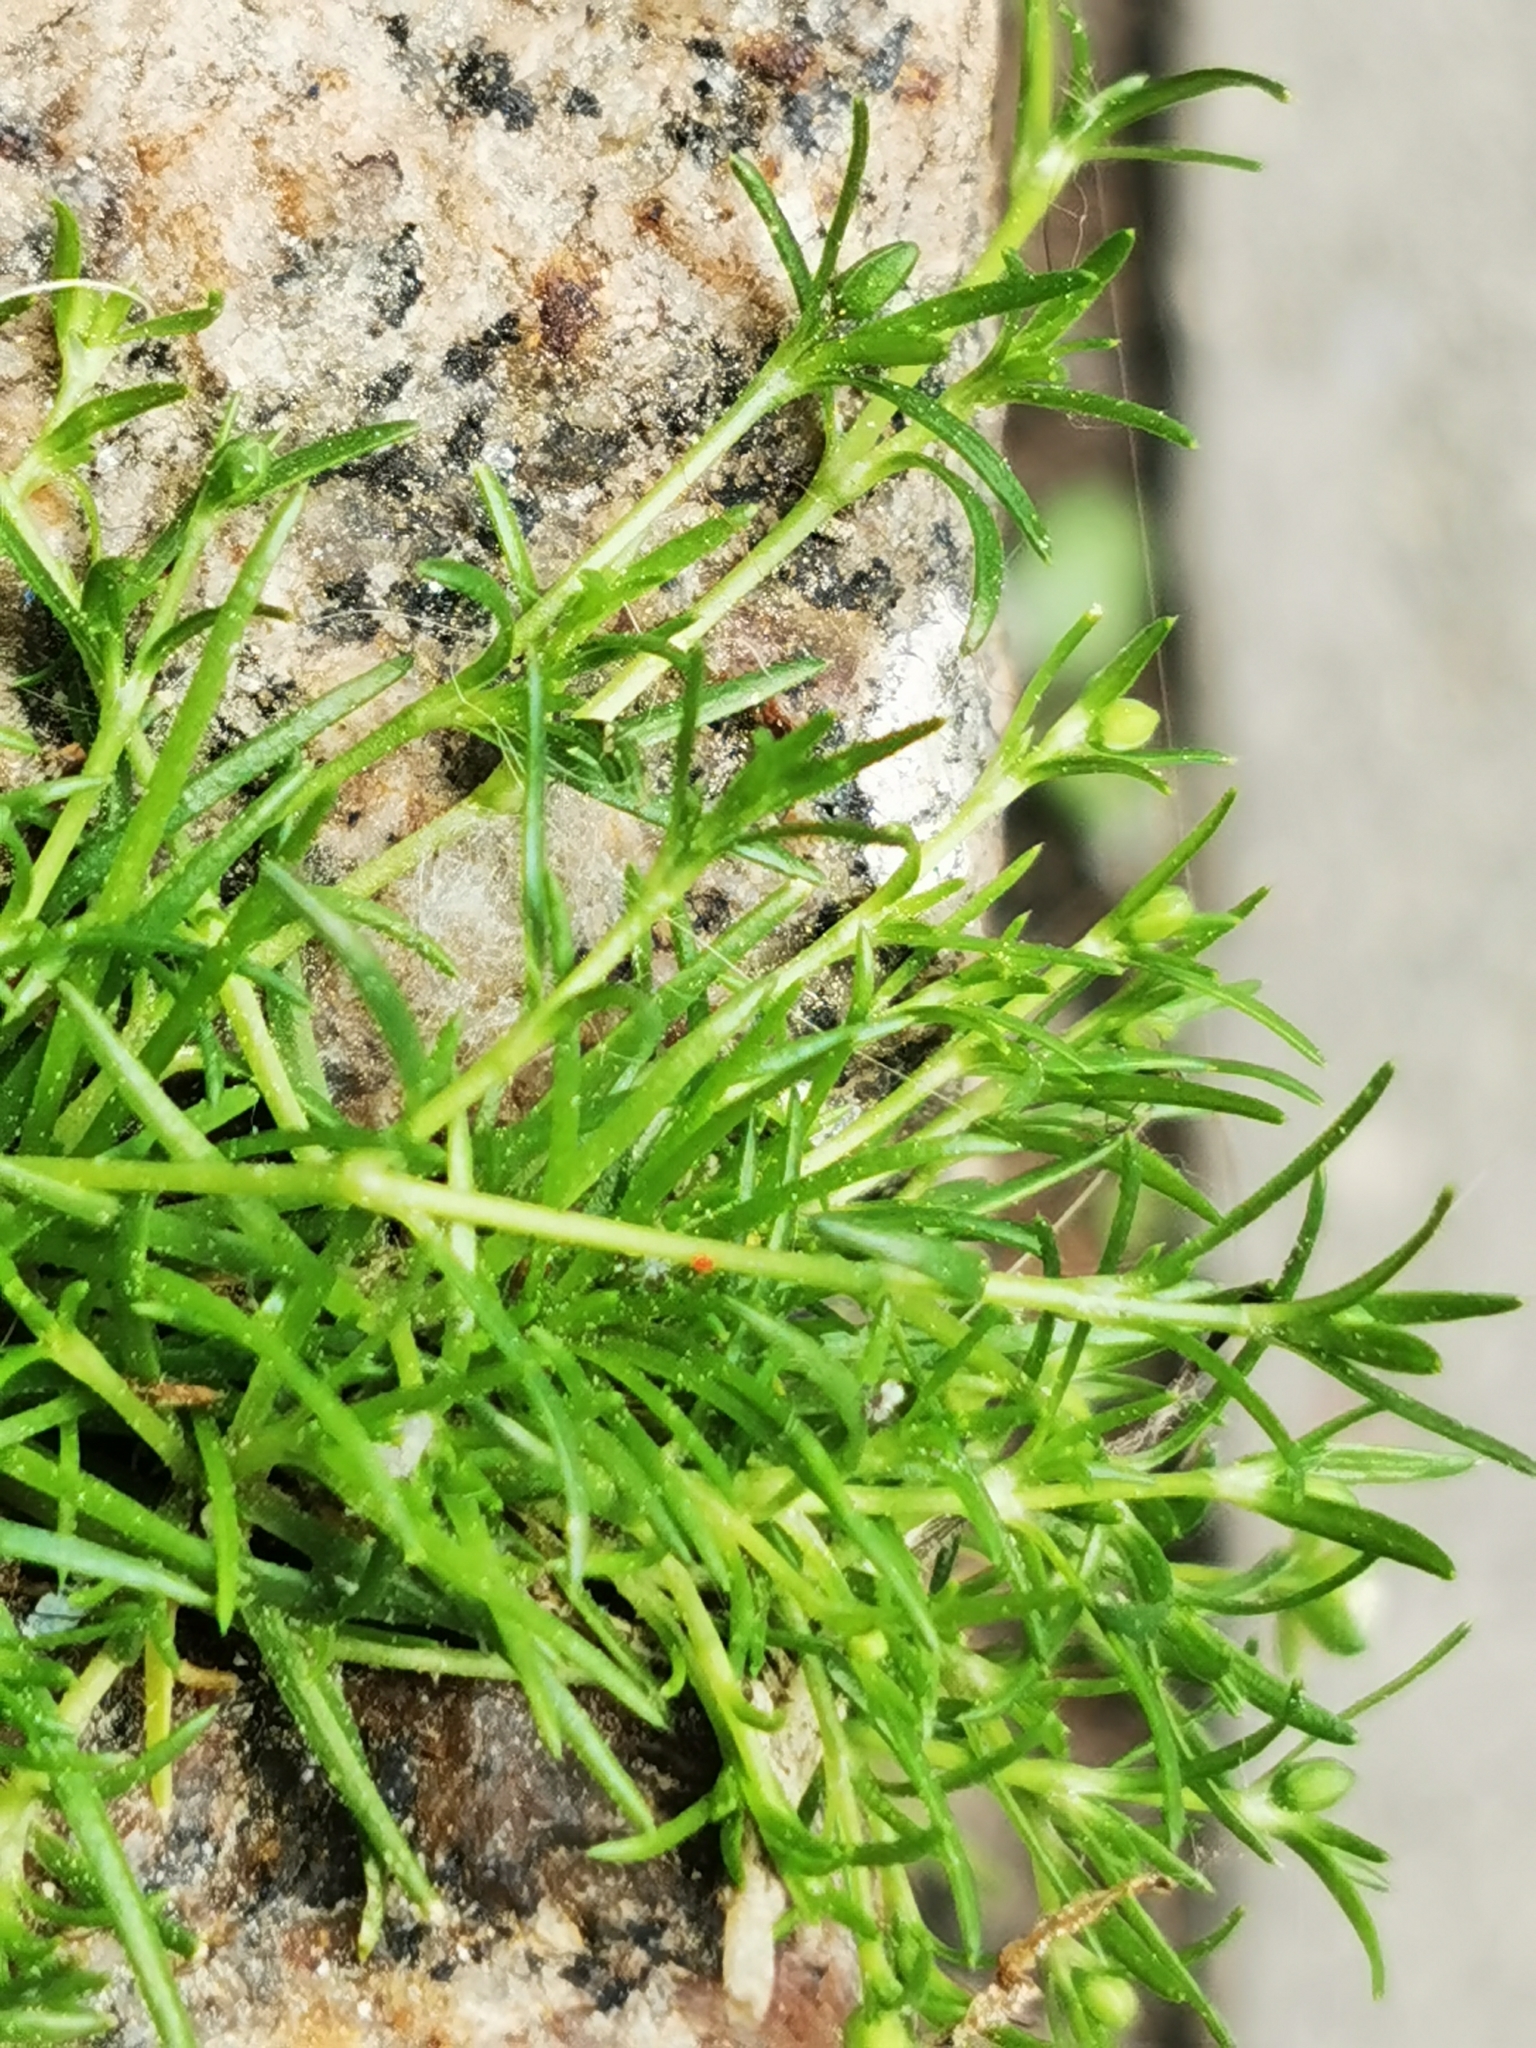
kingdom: Plantae
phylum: Tracheophyta
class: Magnoliopsida
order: Caryophyllales
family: Caryophyllaceae
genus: Sagina
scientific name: Sagina procumbens
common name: Procumbent pearlwort
